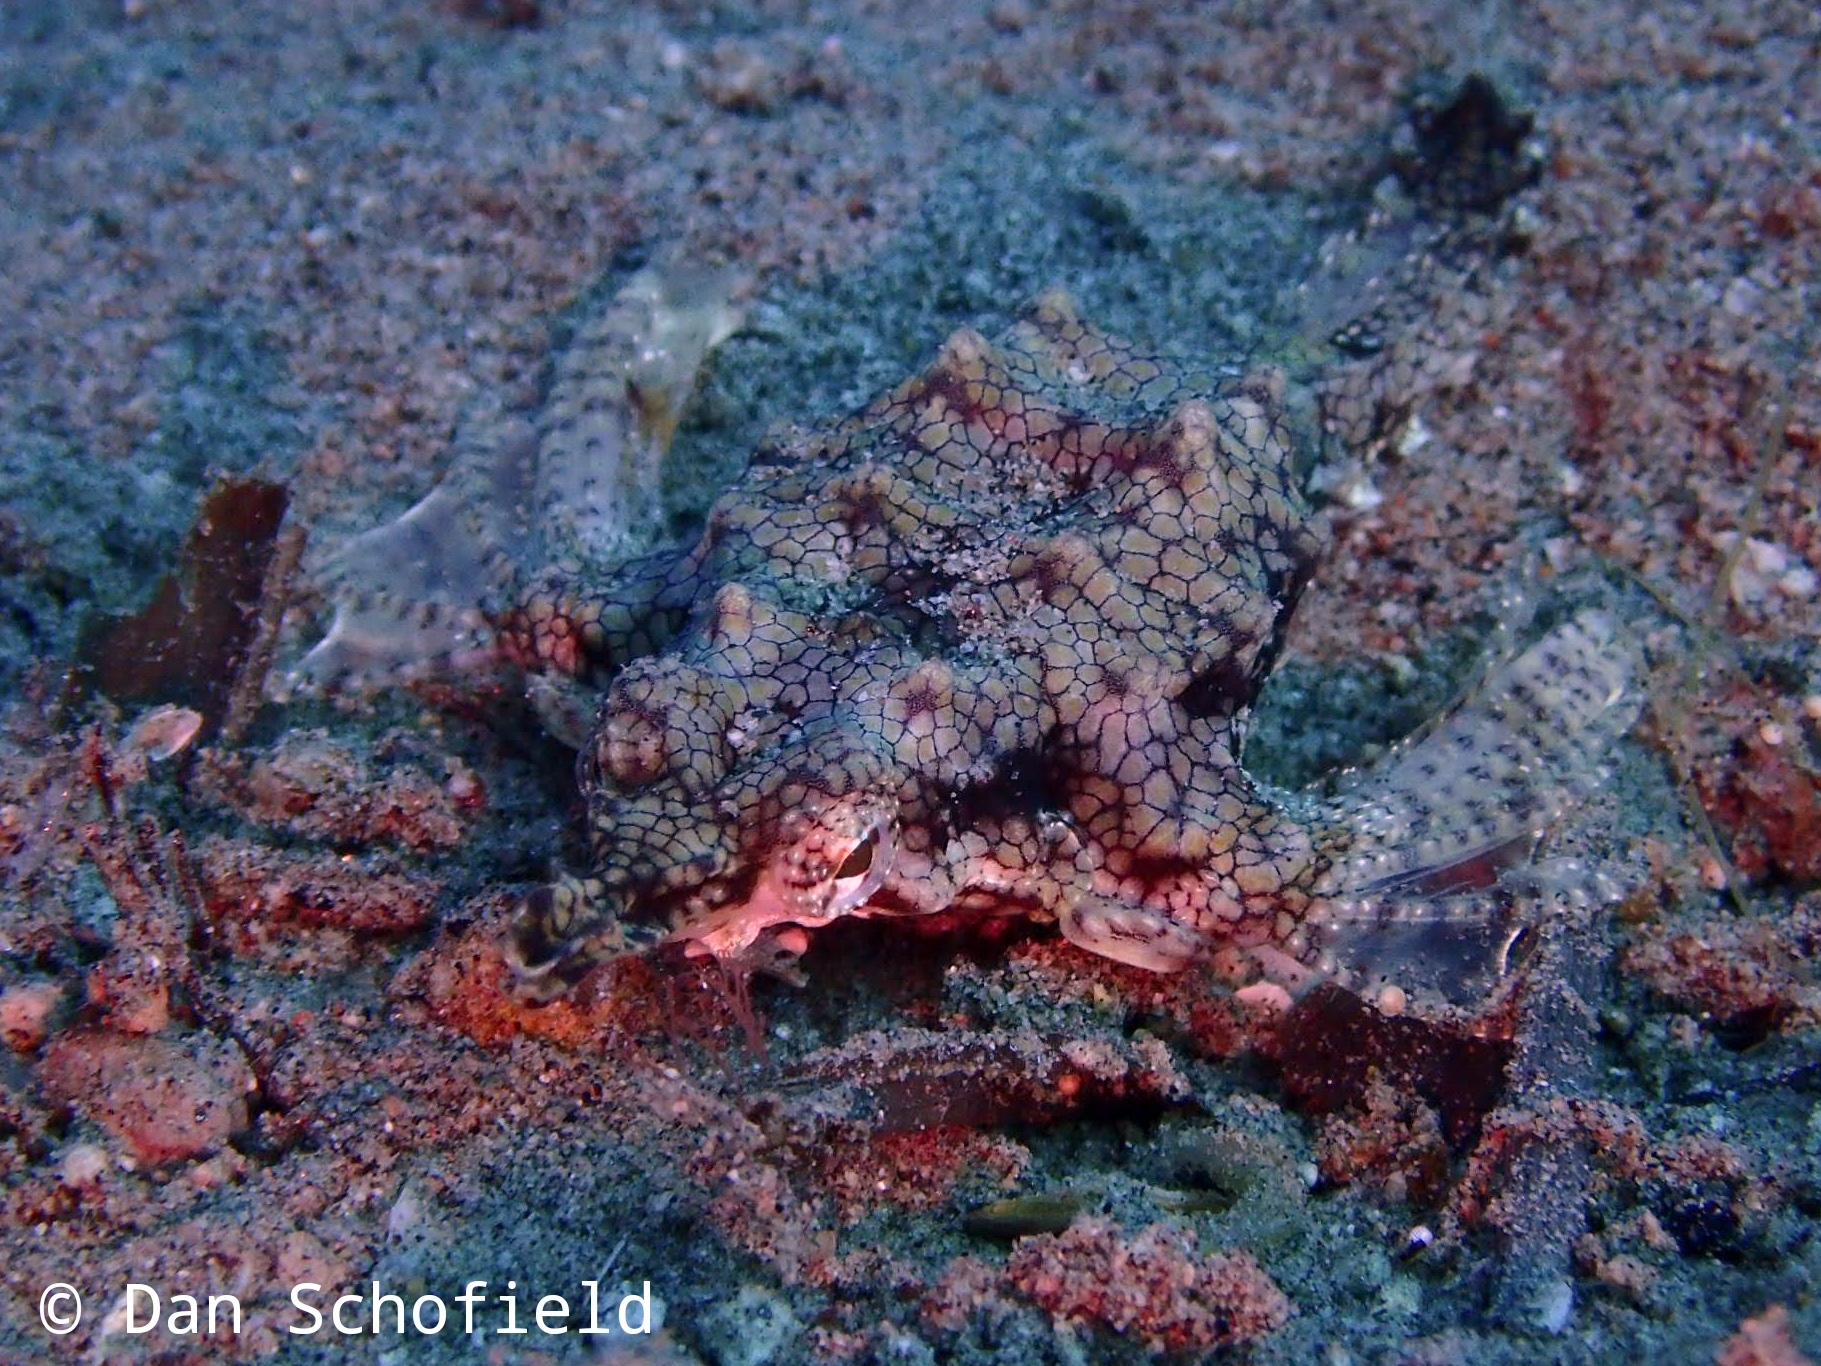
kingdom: Animalia
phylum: Chordata
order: Gasterosteiformes
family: Pegasidae
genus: Eurypegasus
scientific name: Eurypegasus draconis
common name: Short dragonfish
